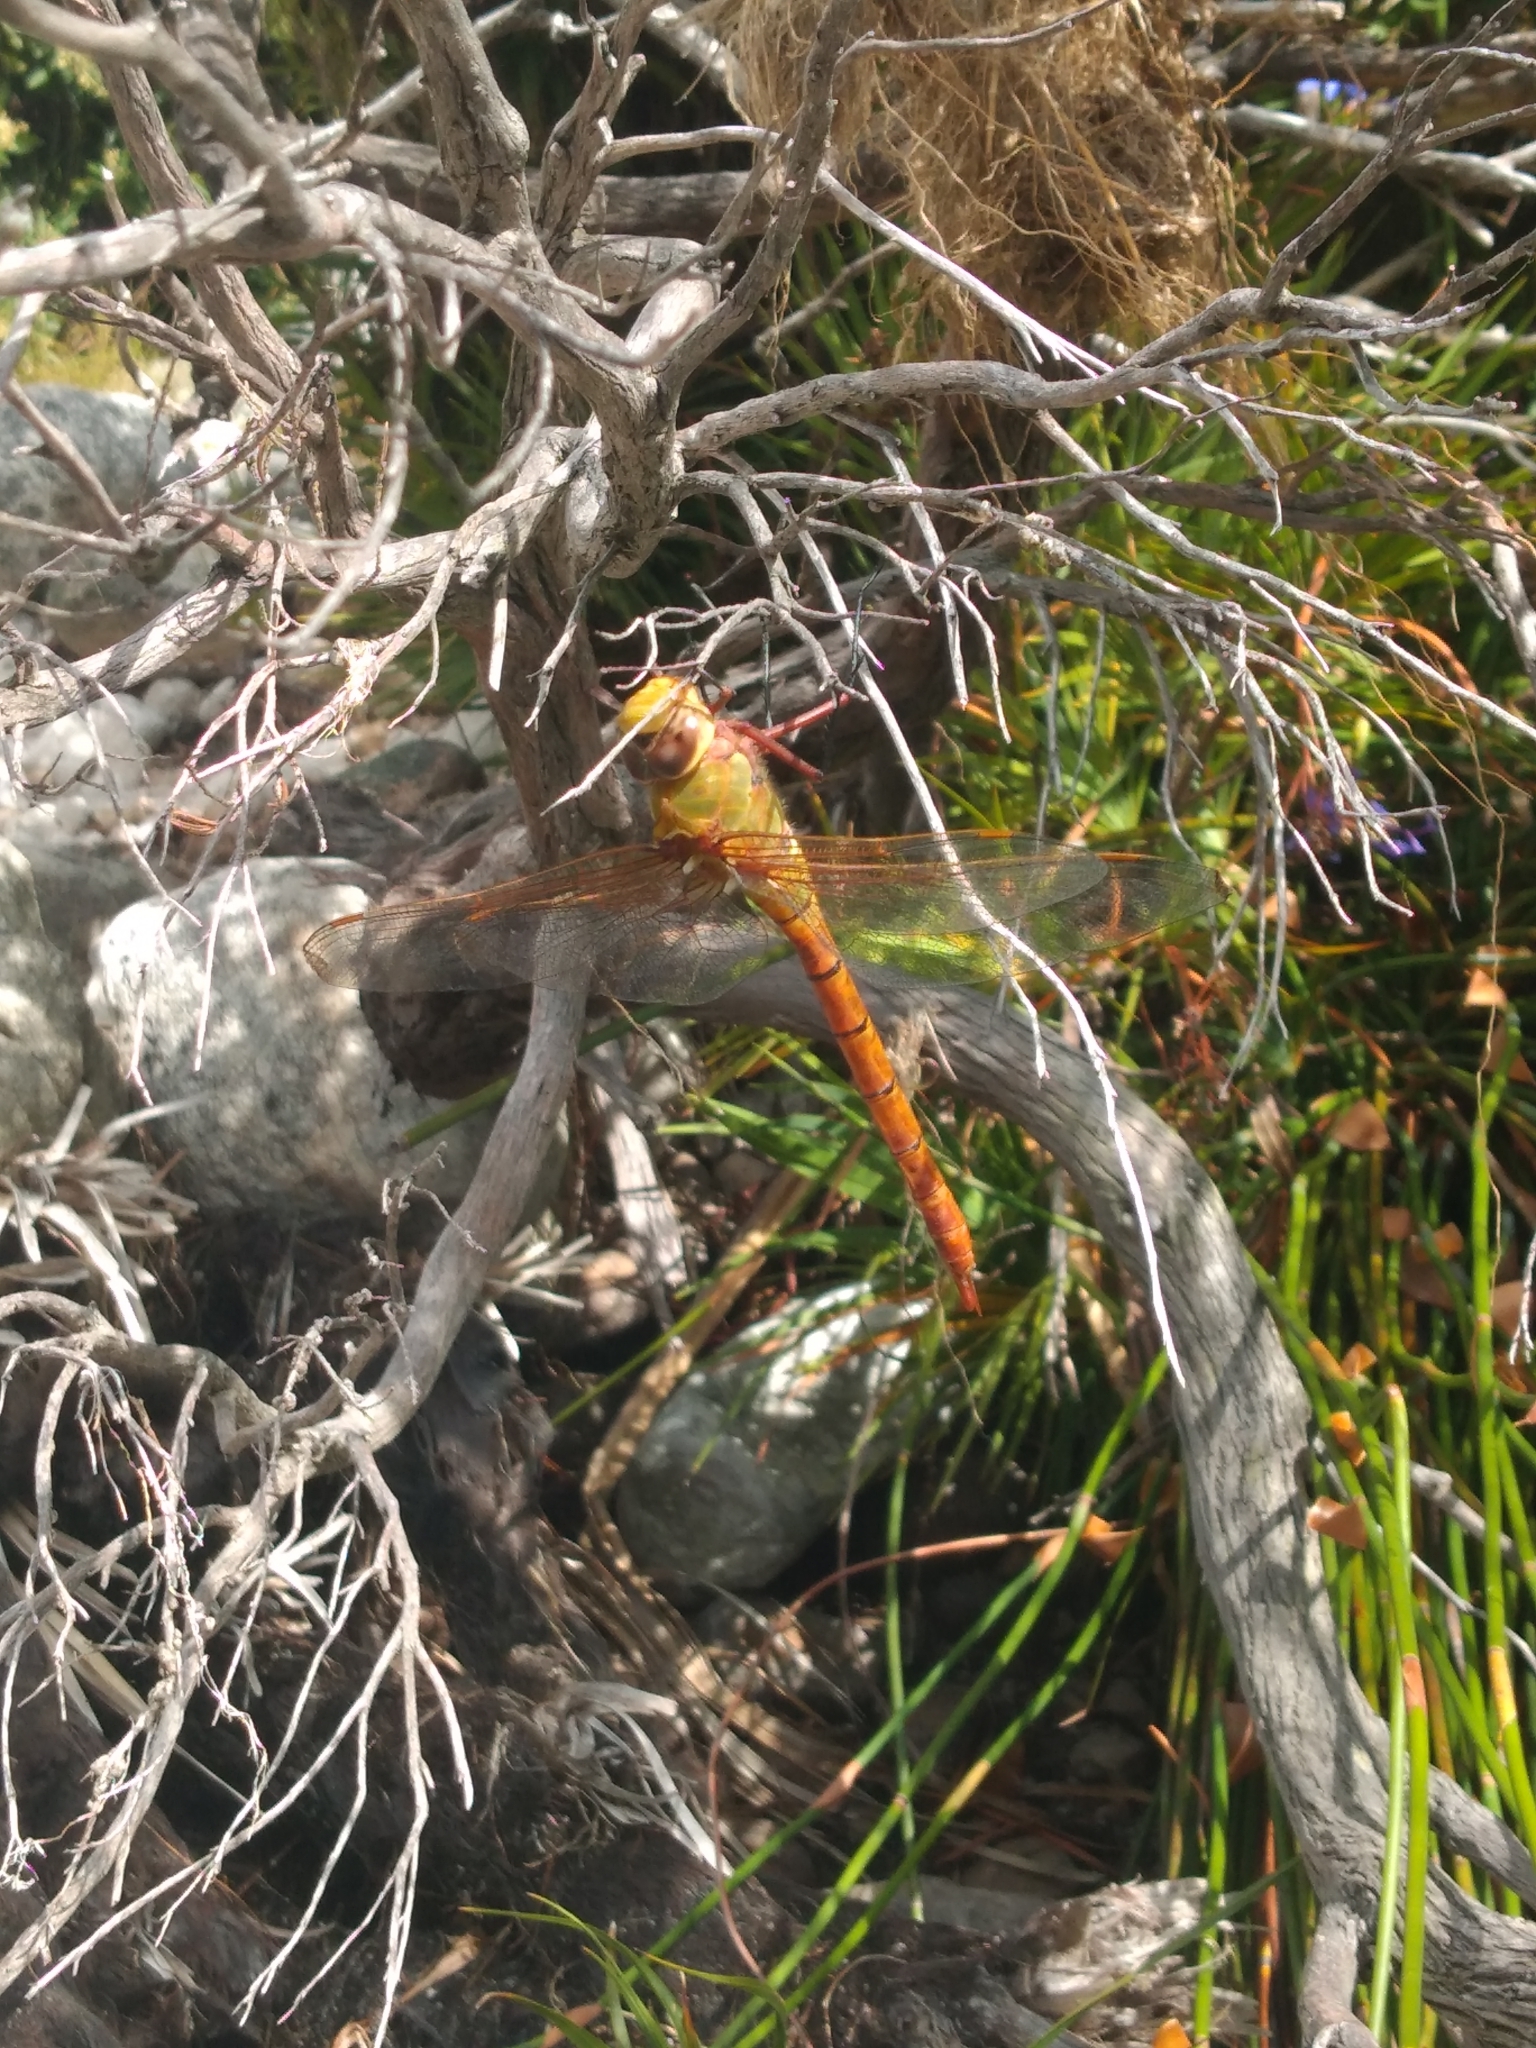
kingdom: Animalia
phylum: Arthropoda
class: Insecta
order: Odonata
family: Aeshnidae
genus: Anax
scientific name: Anax speratus
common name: Orange emperor
